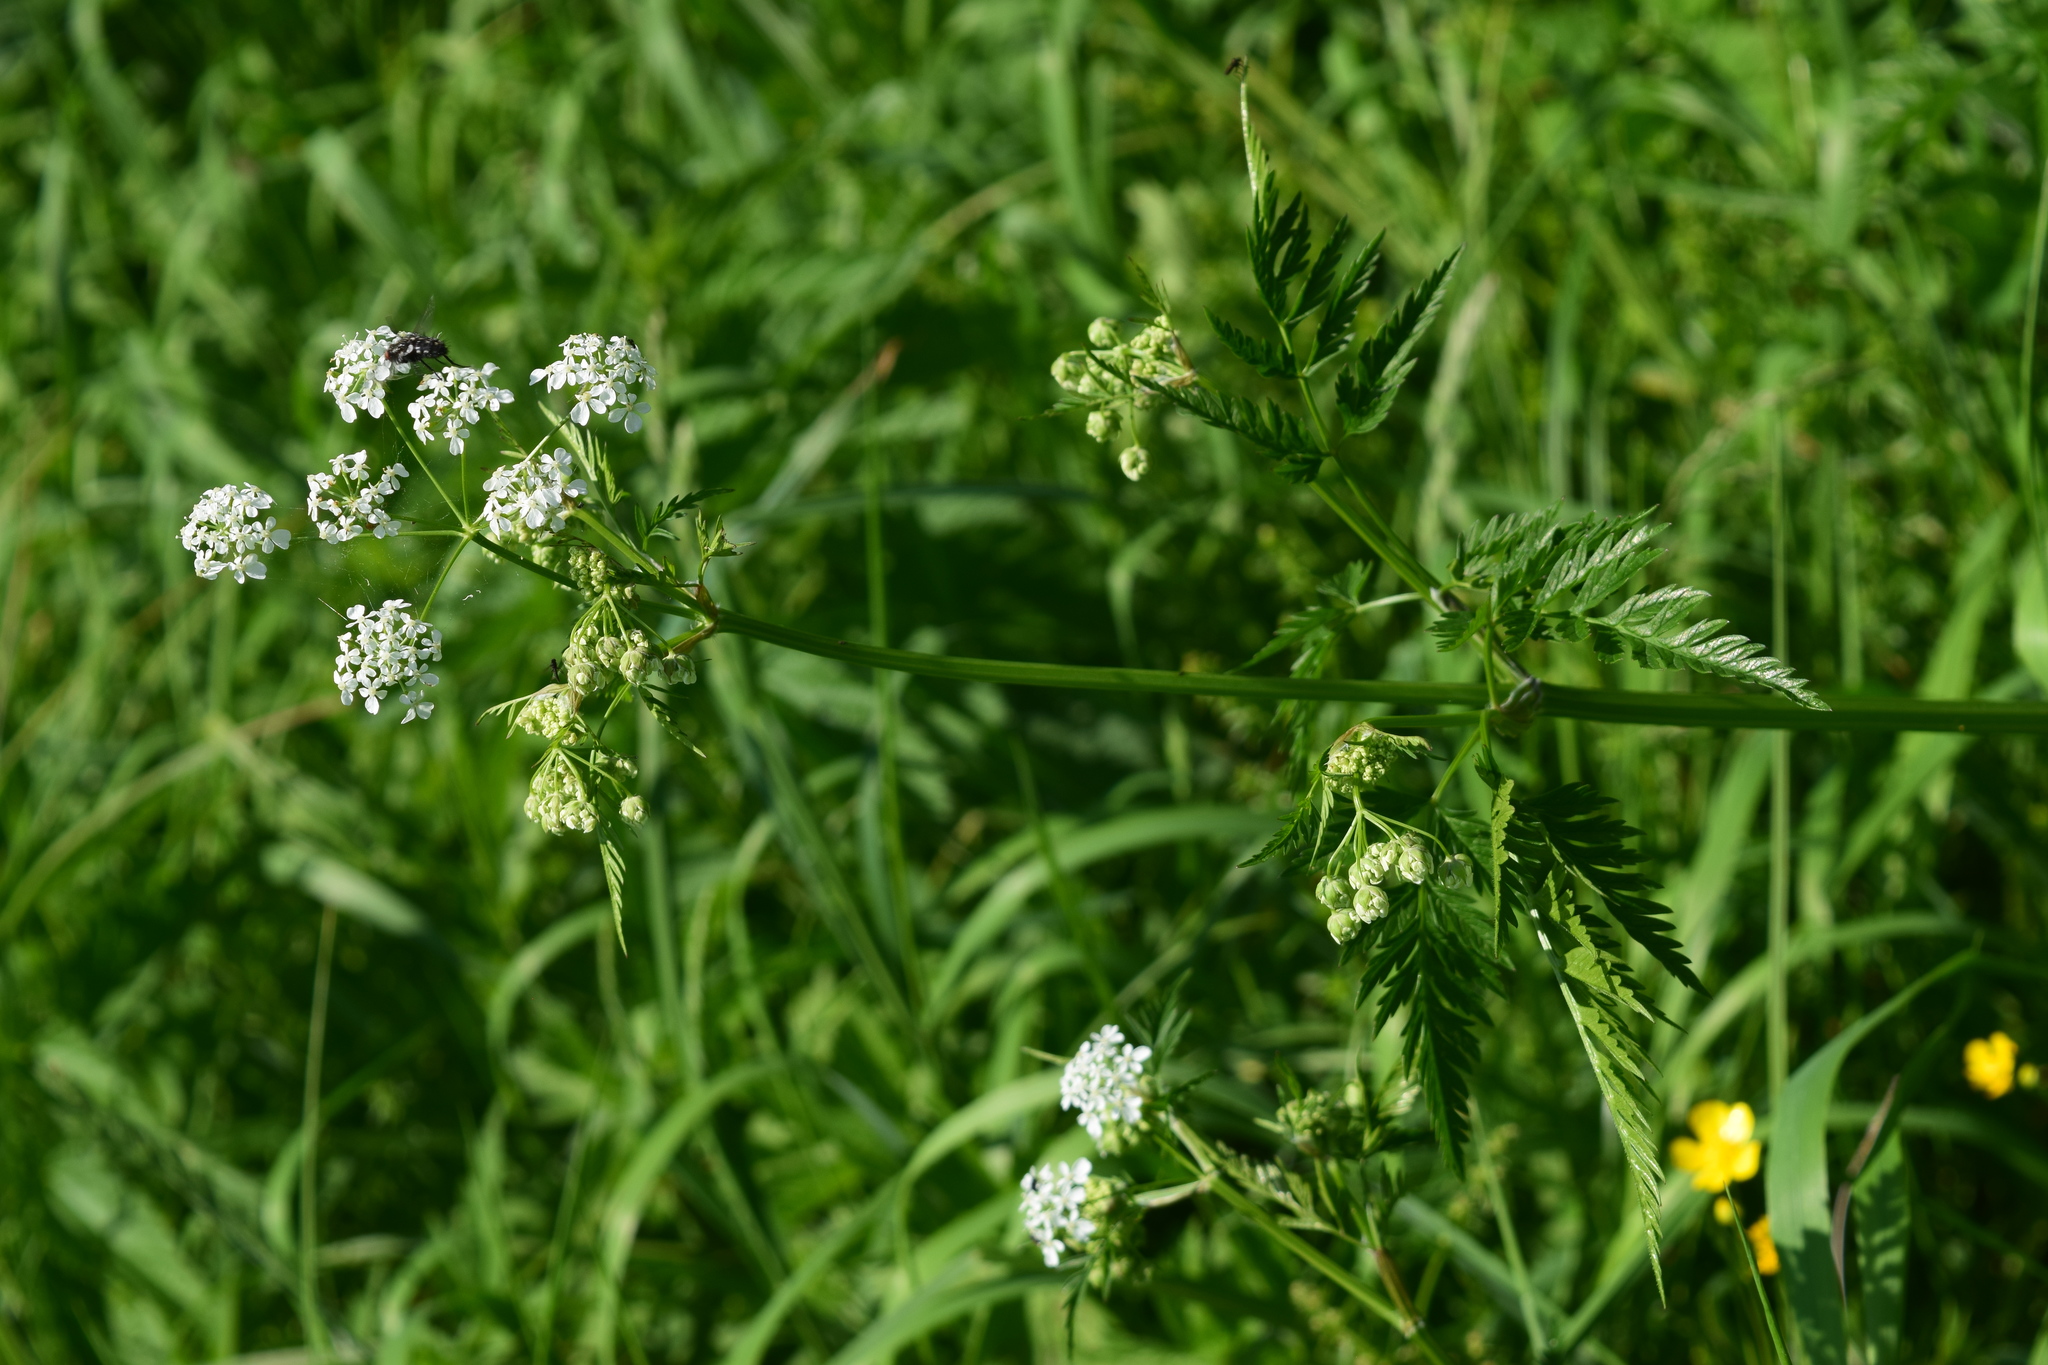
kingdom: Plantae
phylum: Tracheophyta
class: Magnoliopsida
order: Apiales
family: Apiaceae
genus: Anthriscus
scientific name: Anthriscus sylvestris
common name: Cow parsley
